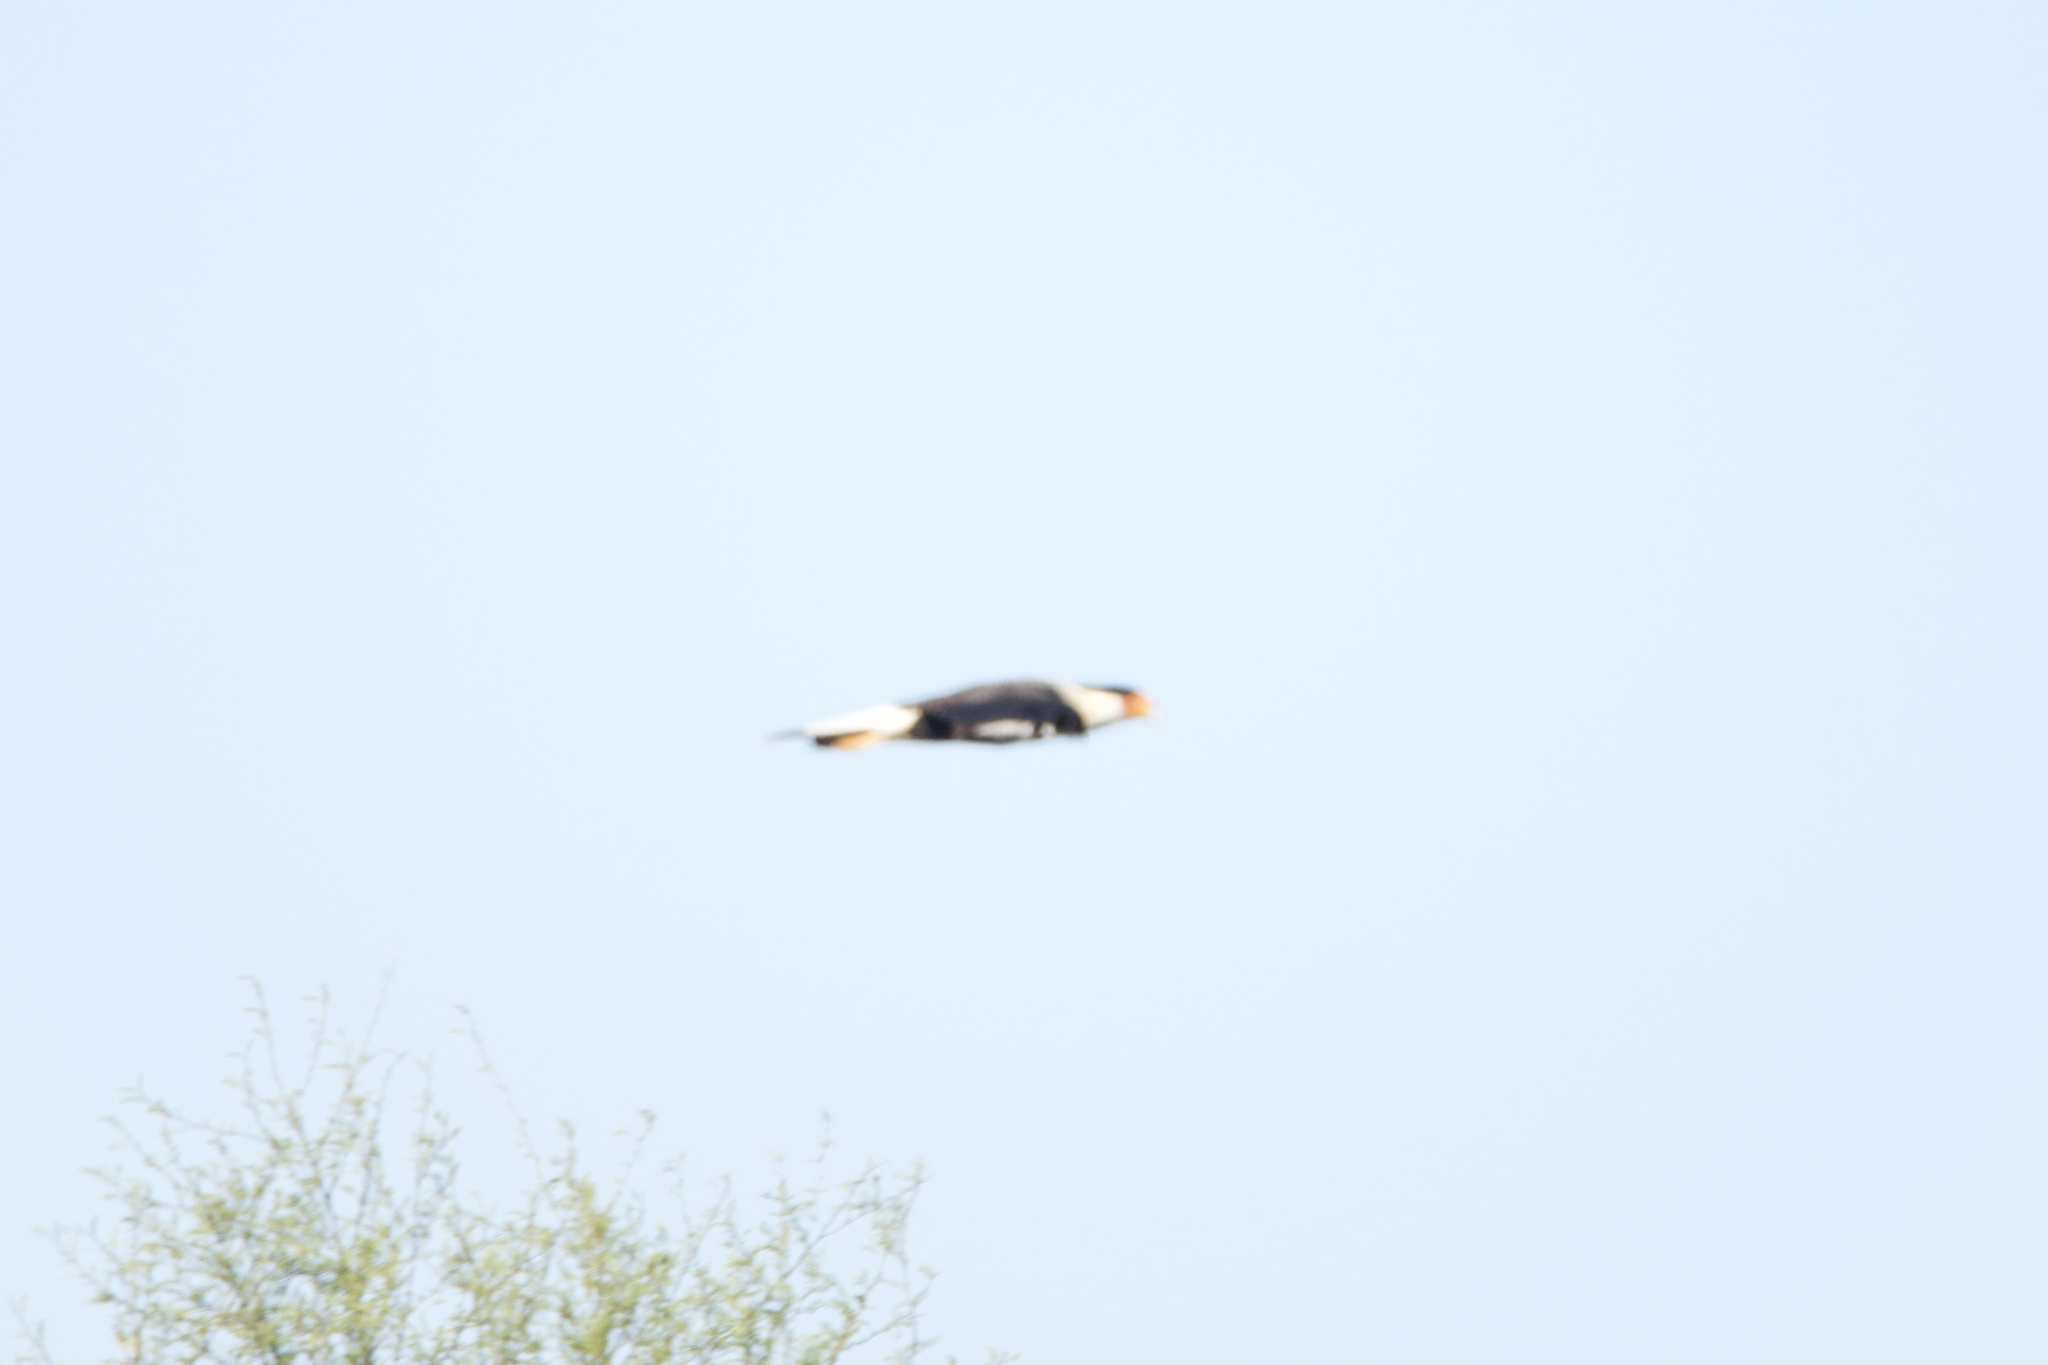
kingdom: Animalia
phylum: Chordata
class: Aves
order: Falconiformes
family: Falconidae
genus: Caracara
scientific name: Caracara plancus
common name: Southern caracara
